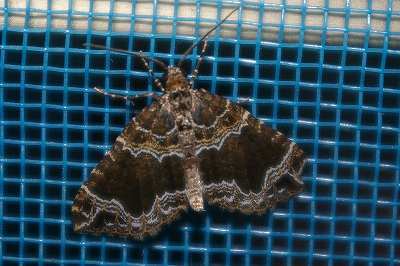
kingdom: Animalia
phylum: Arthropoda
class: Insecta
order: Lepidoptera
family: Geometridae
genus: Lampropteryx
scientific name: Lampropteryx otregiata
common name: Devon carpet
